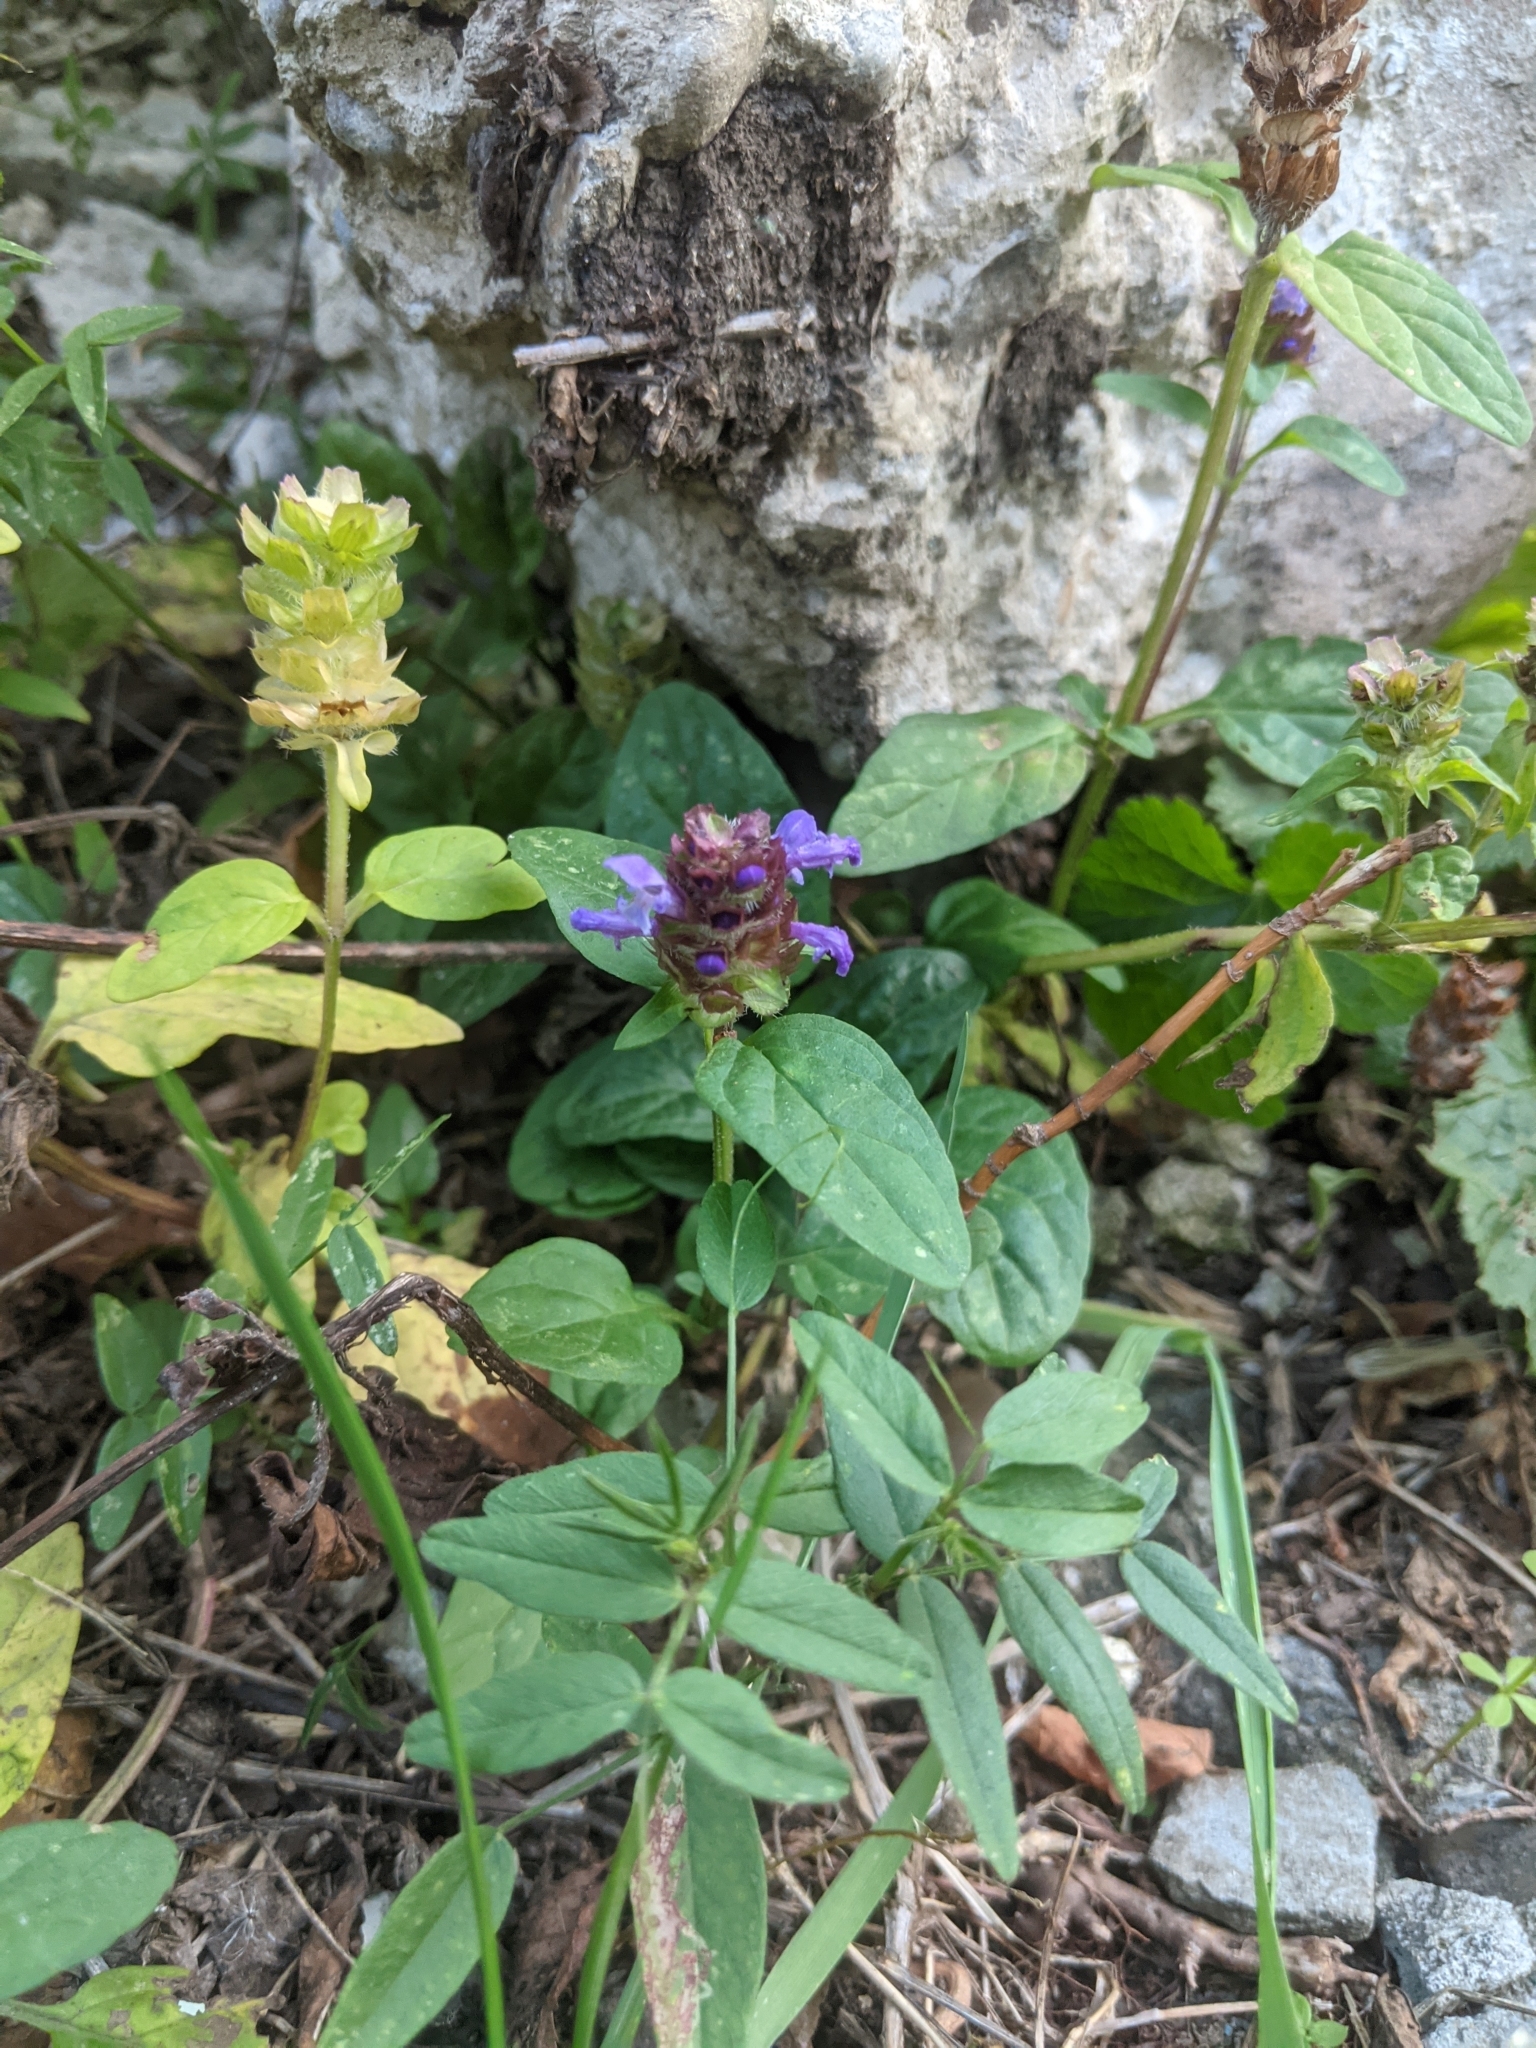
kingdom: Plantae
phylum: Tracheophyta
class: Magnoliopsida
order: Lamiales
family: Lamiaceae
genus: Prunella
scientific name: Prunella vulgaris
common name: Heal-all
